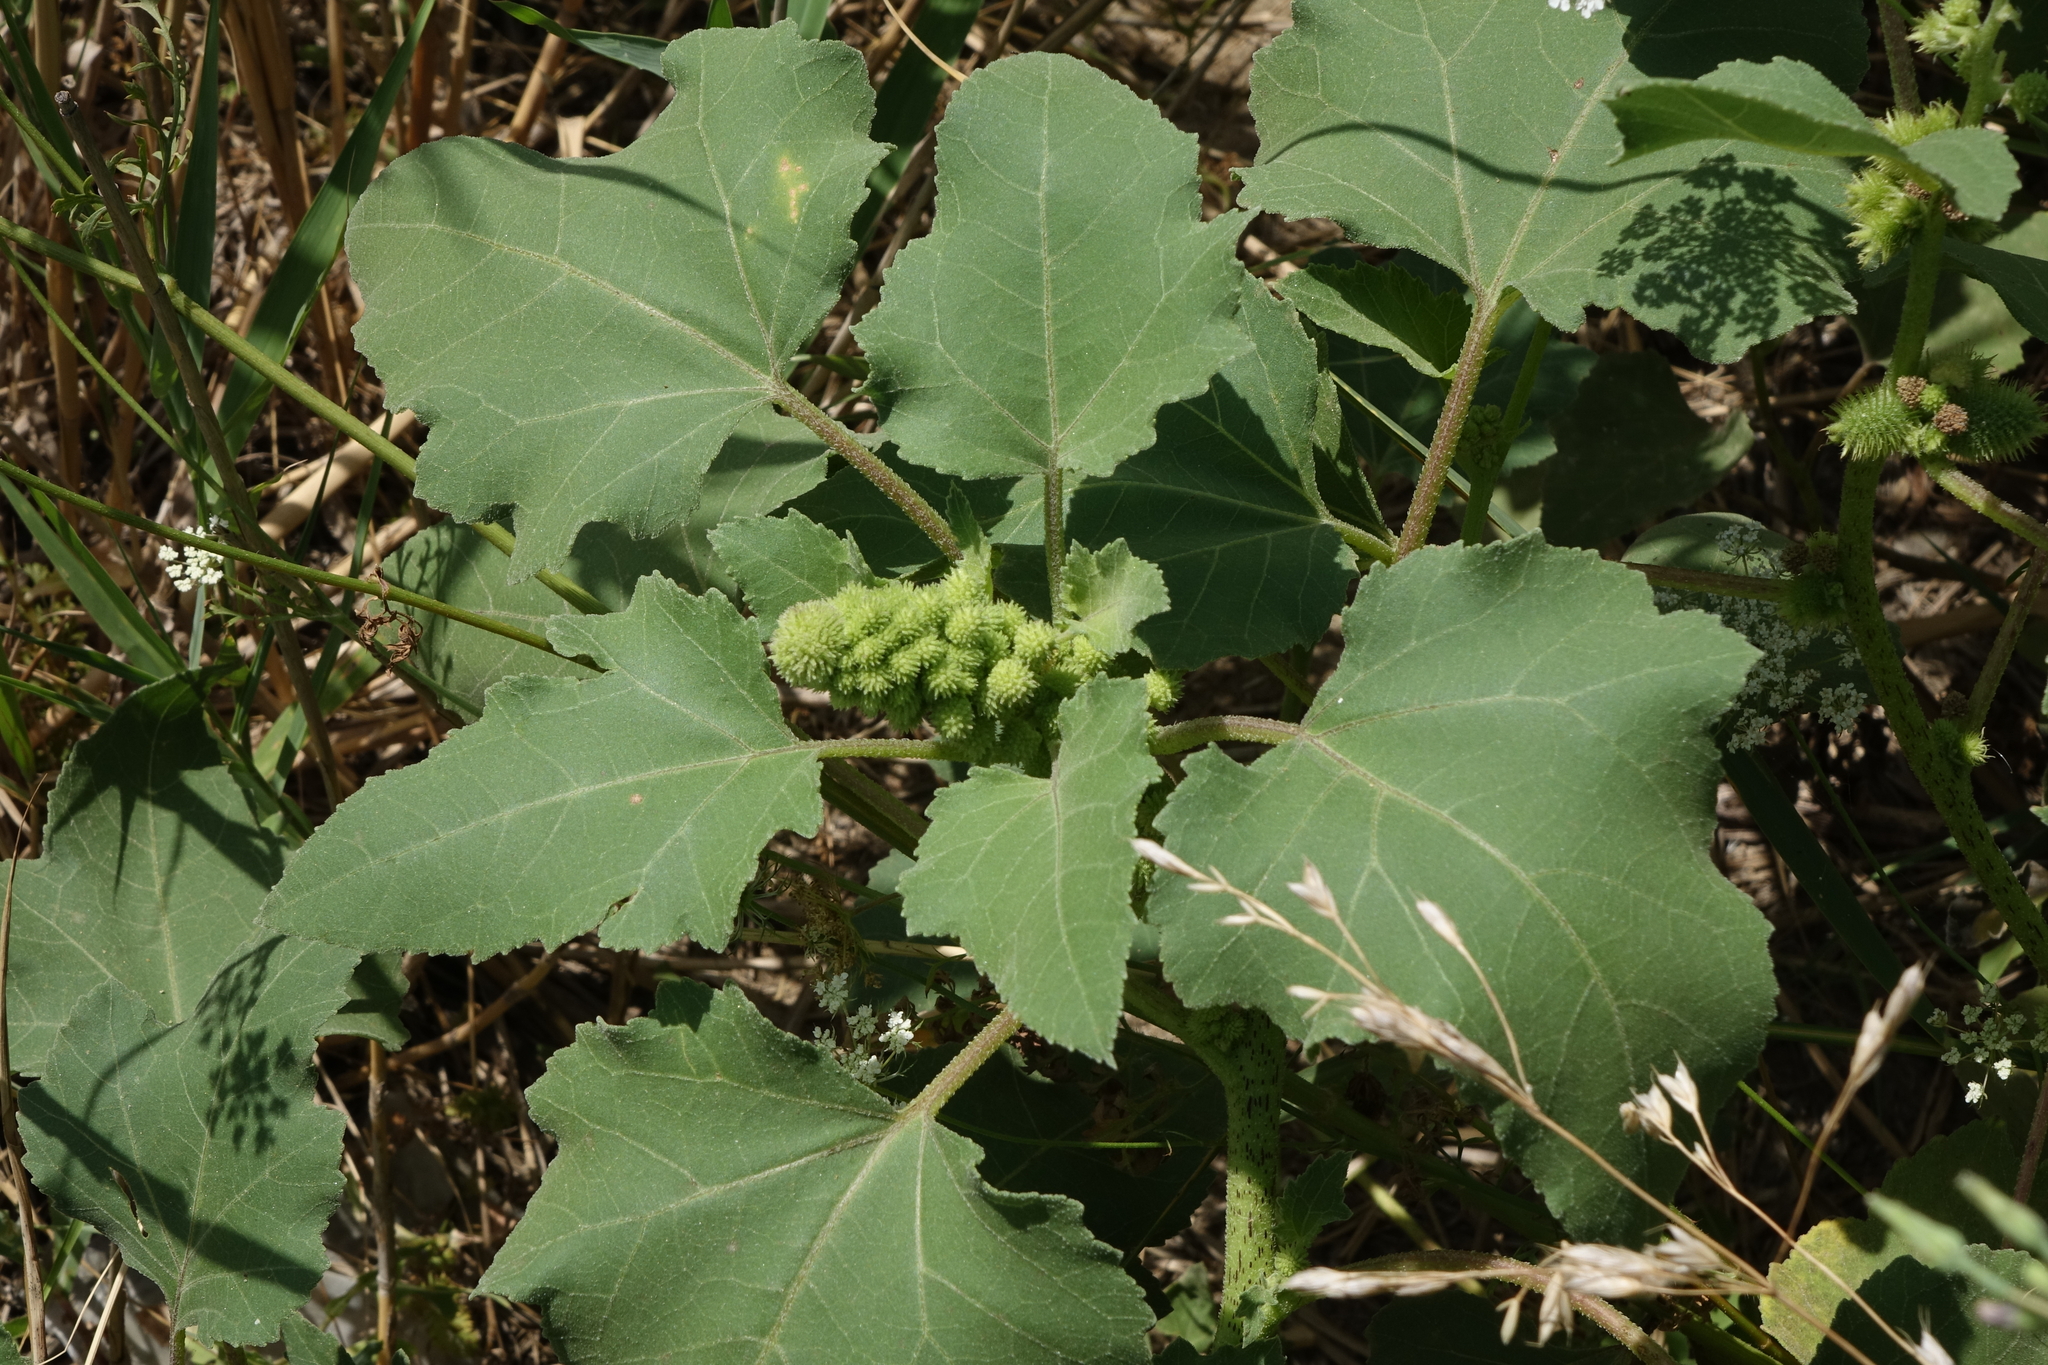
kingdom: Plantae
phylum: Tracheophyta
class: Magnoliopsida
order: Asterales
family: Asteraceae
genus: Xanthium
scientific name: Xanthium orientale
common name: Californian burr
